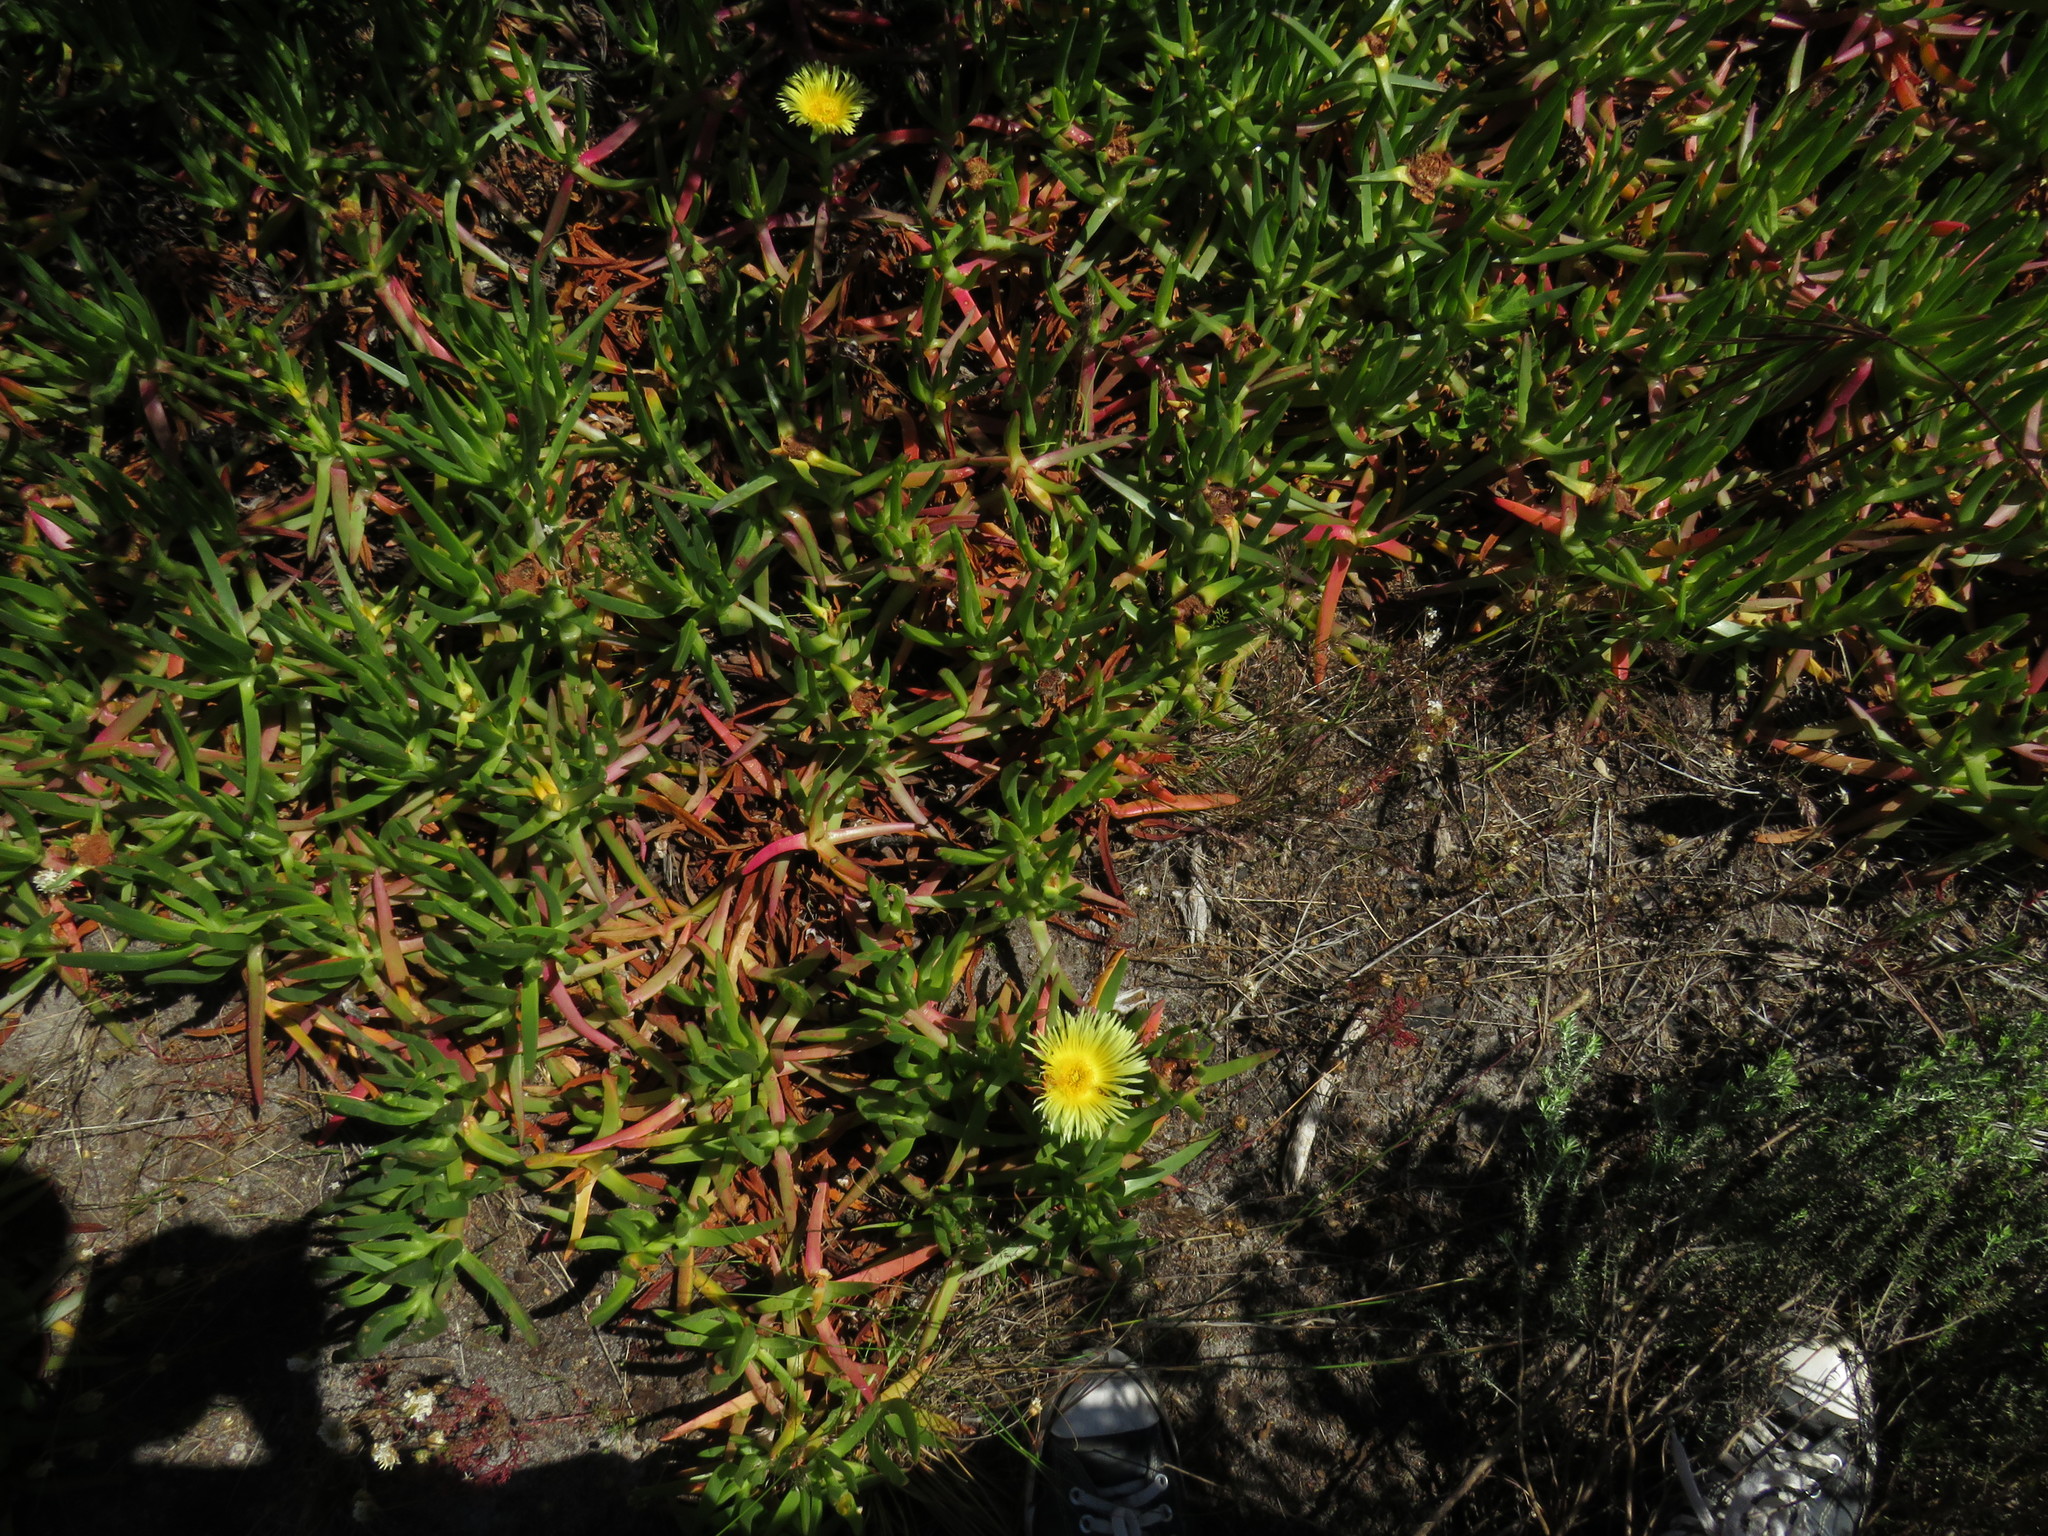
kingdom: Plantae
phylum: Tracheophyta
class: Magnoliopsida
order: Caryophyllales
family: Aizoaceae
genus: Carpobrotus
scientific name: Carpobrotus edulis
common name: Hottentot-fig
